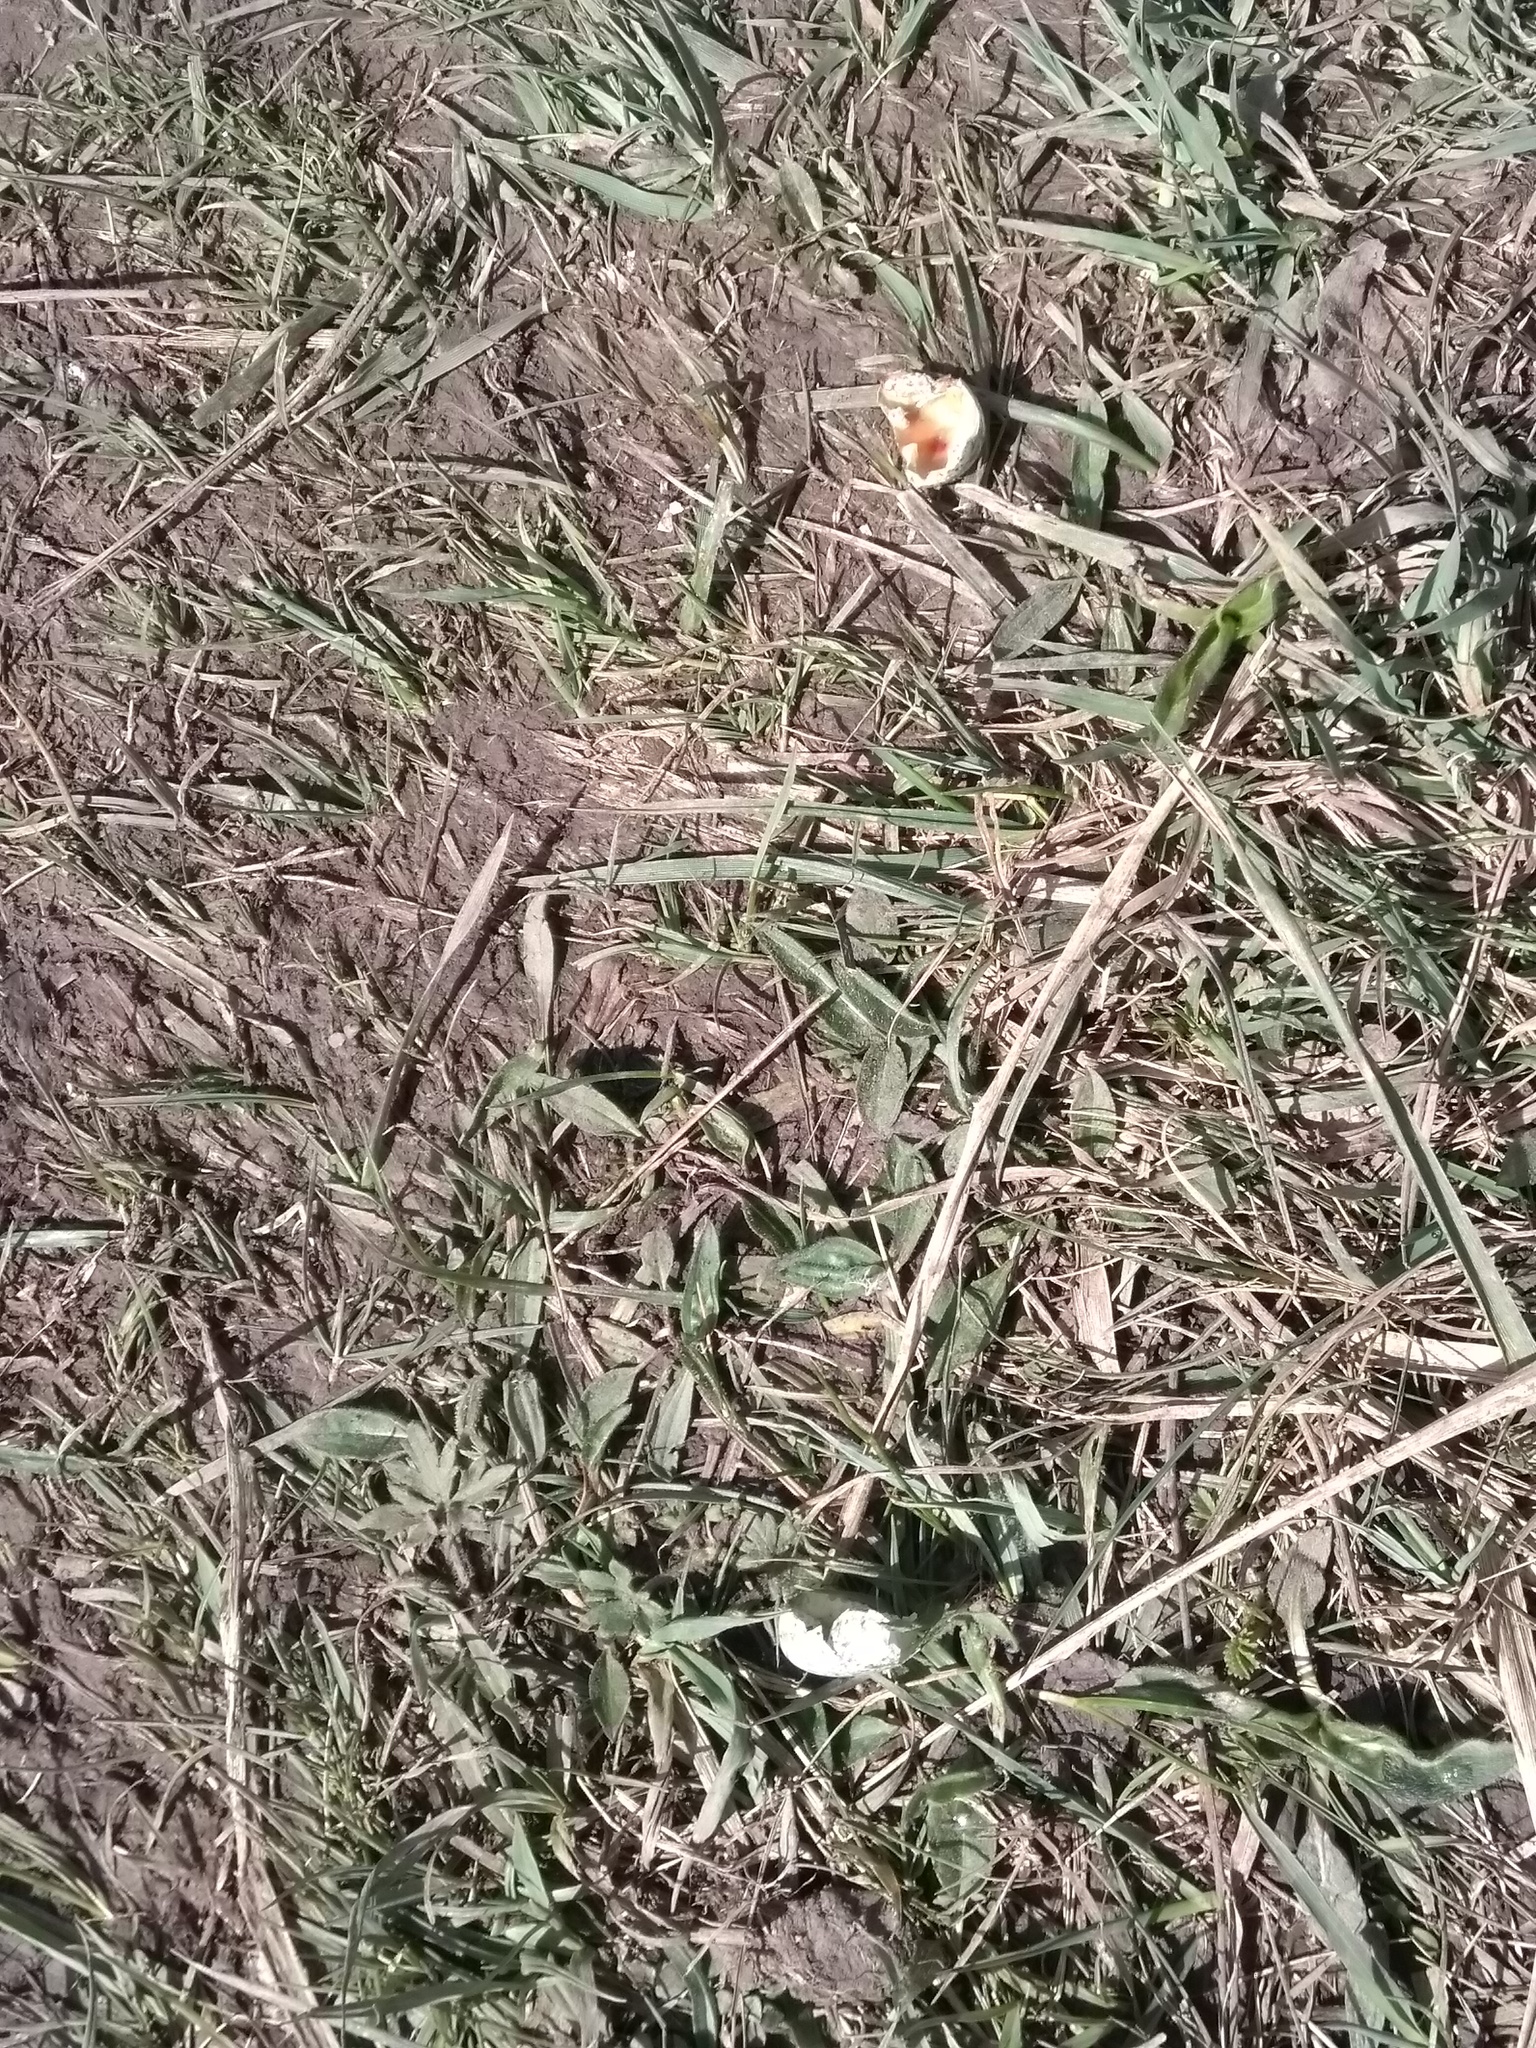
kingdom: Animalia
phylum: Chordata
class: Aves
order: Passeriformes
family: Turdidae
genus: Turdus
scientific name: Turdus merula
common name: Common blackbird
